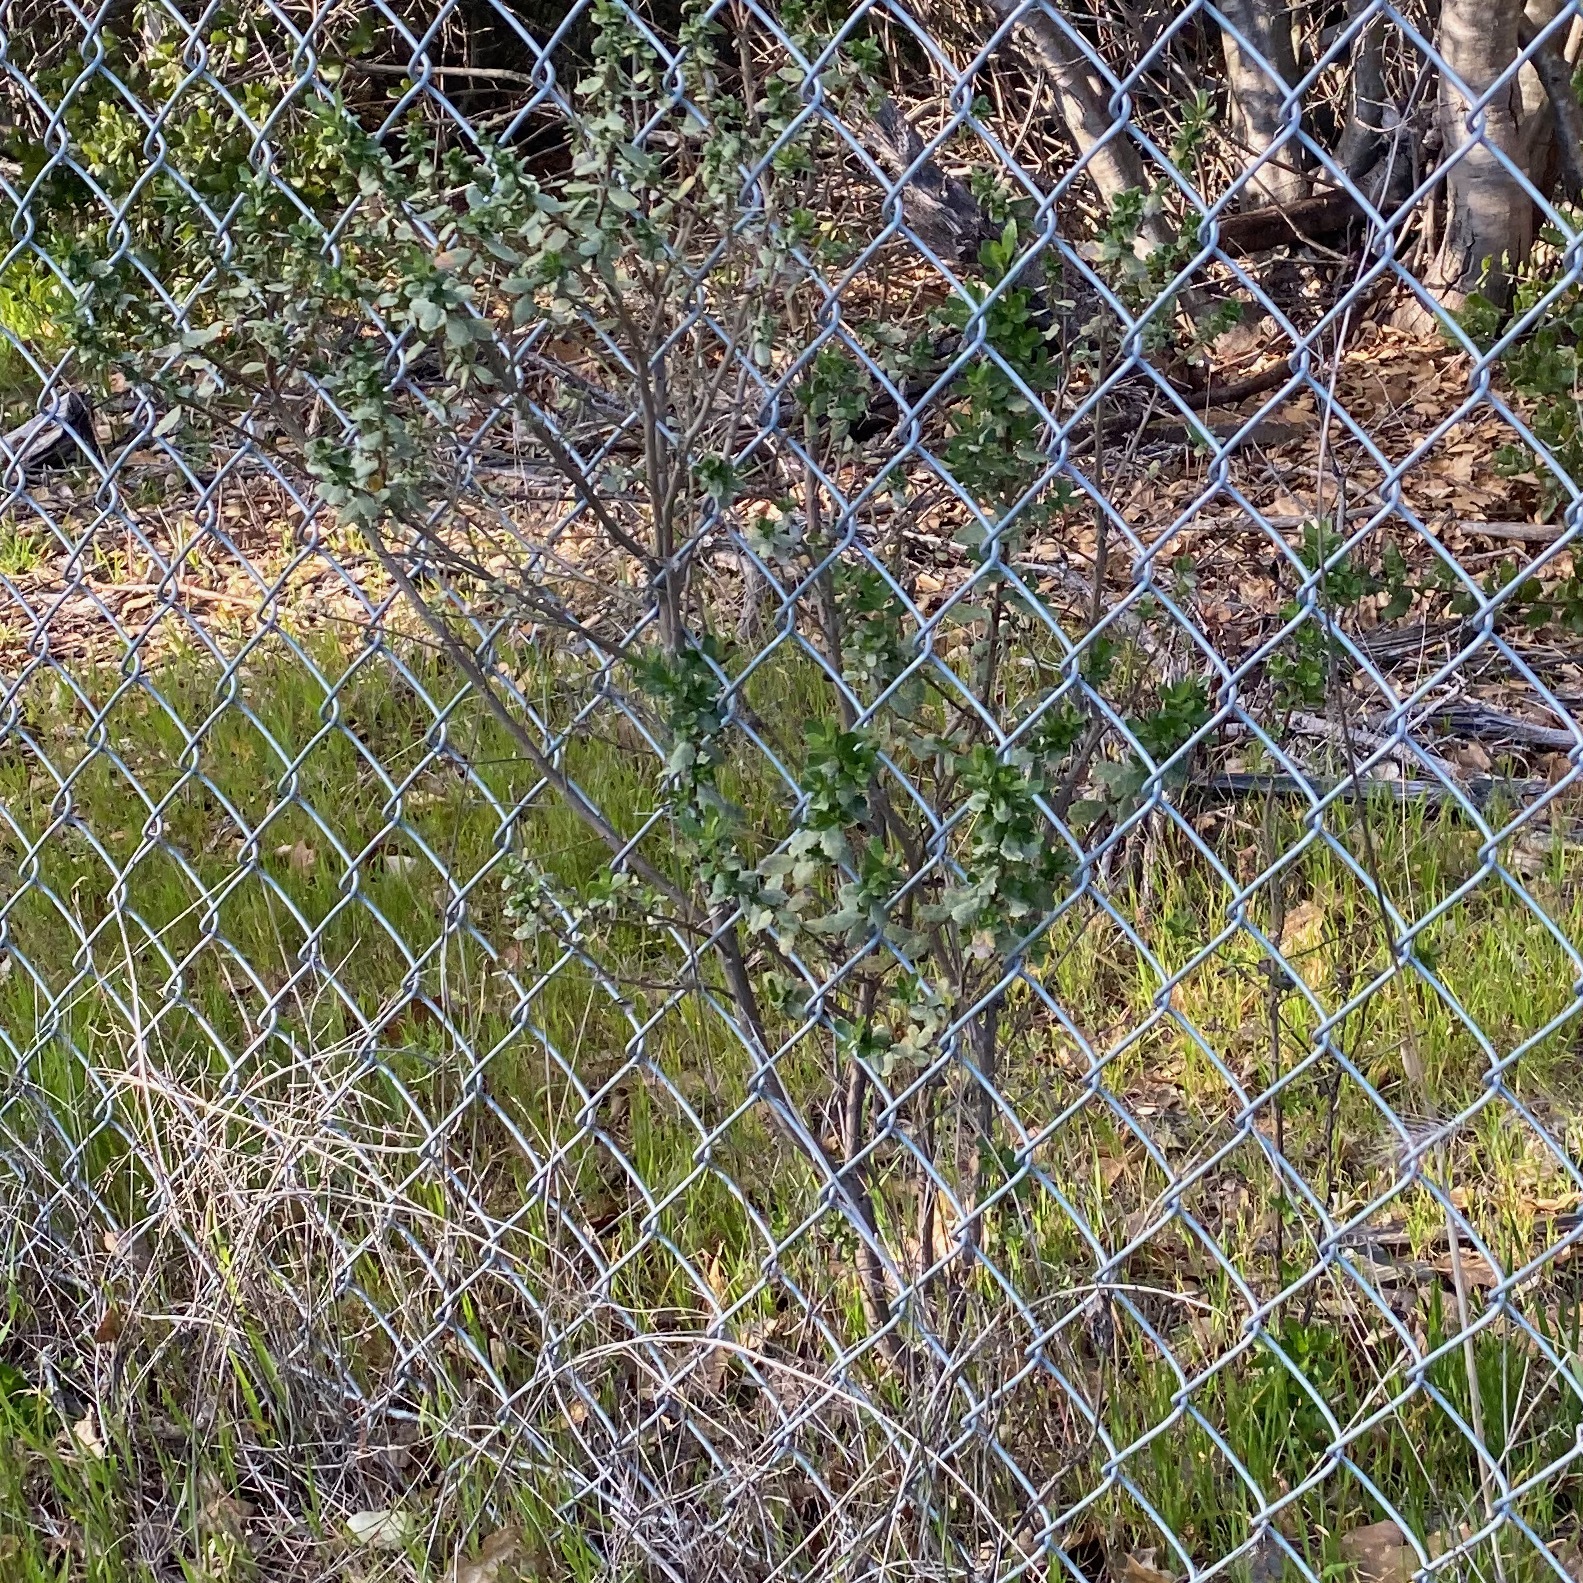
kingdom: Plantae
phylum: Tracheophyta
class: Magnoliopsida
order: Asterales
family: Asteraceae
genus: Baccharis
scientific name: Baccharis pilularis
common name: Coyotebrush
